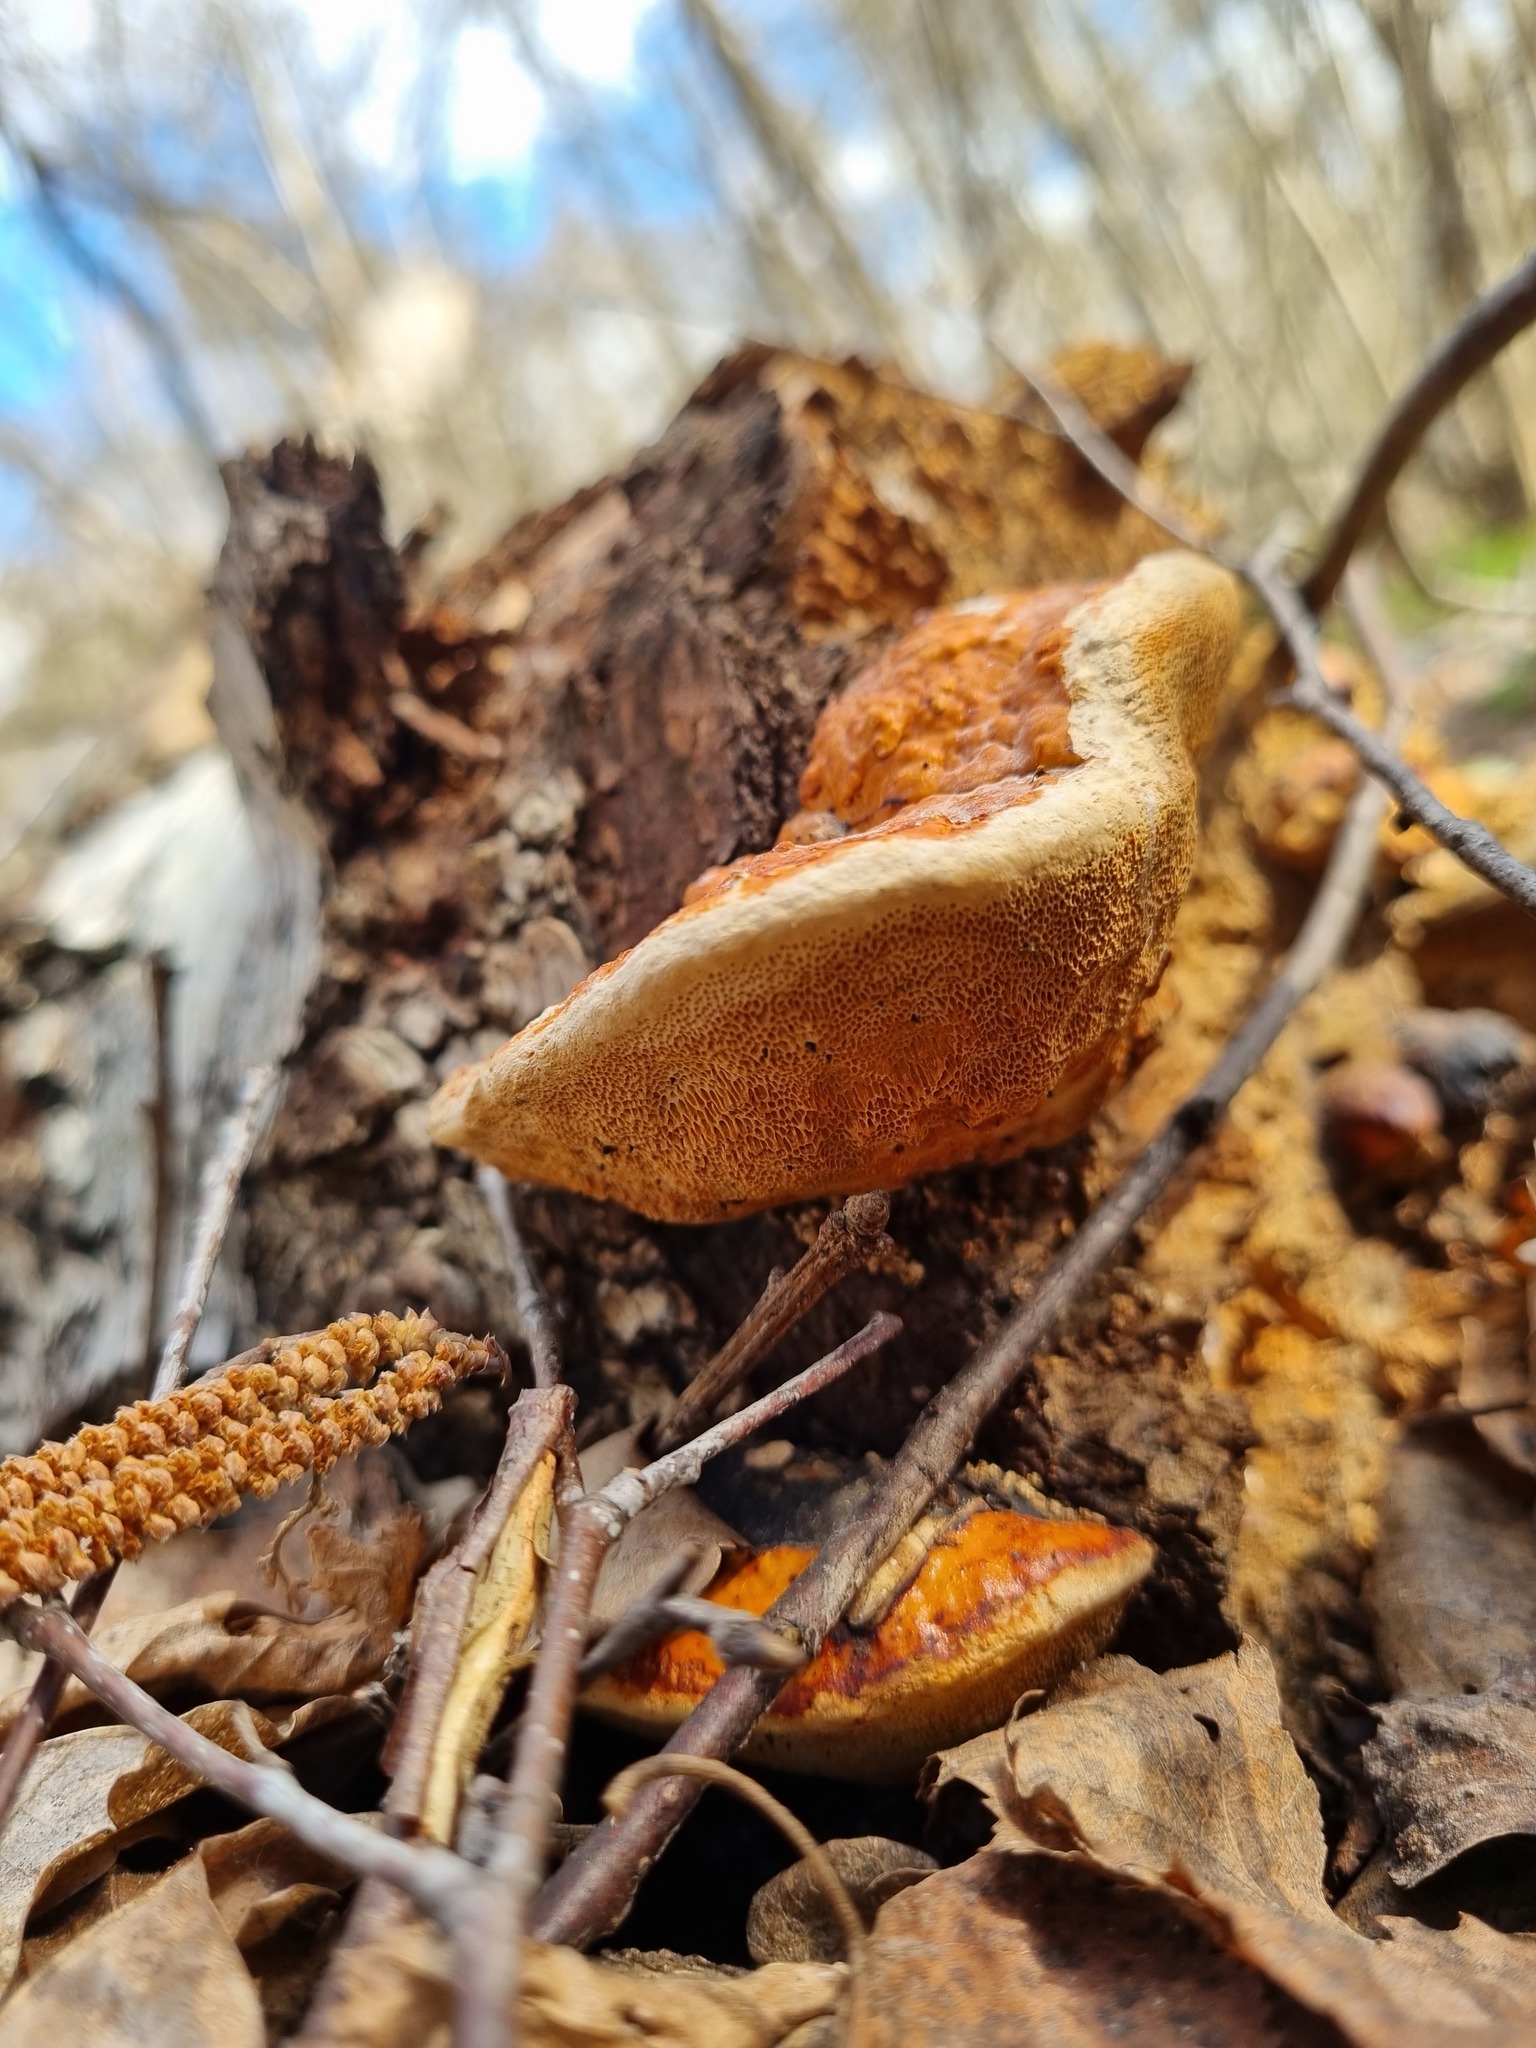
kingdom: Fungi
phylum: Basidiomycota
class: Agaricomycetes
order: Polyporales
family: Fomitopsidaceae
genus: Fomitopsis
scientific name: Fomitopsis pinicola
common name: Red-belted bracket
